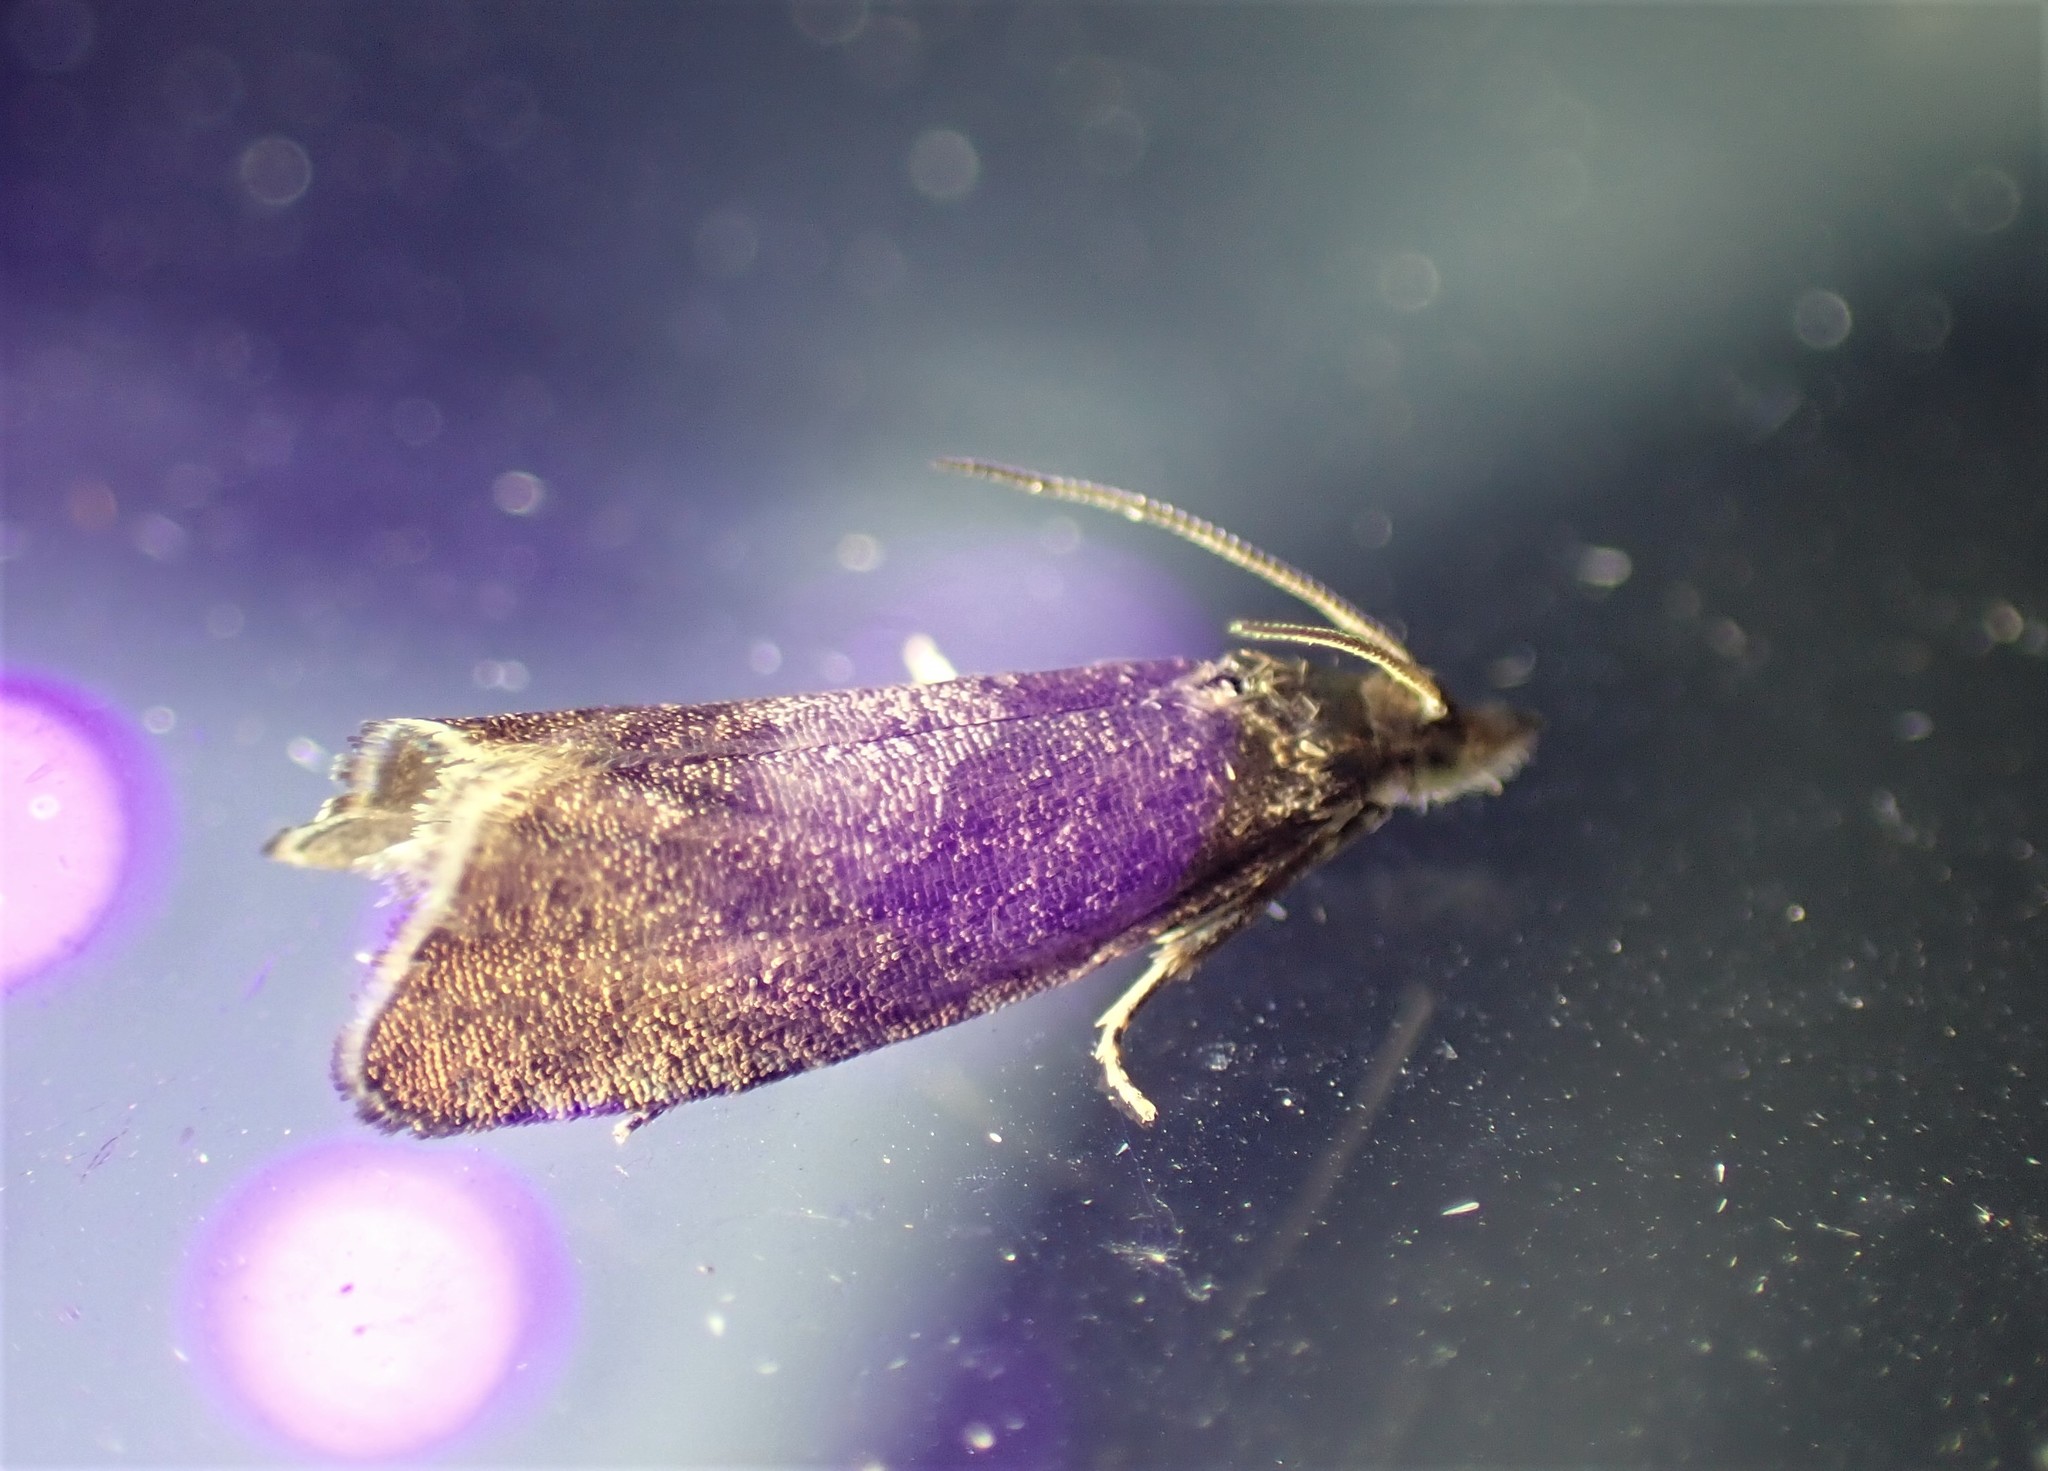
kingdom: Animalia
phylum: Arthropoda
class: Insecta
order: Lepidoptera
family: Tortricidae
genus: Dichrorampha
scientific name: Dichrorampha acuminatana
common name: Sharp-winged drill
